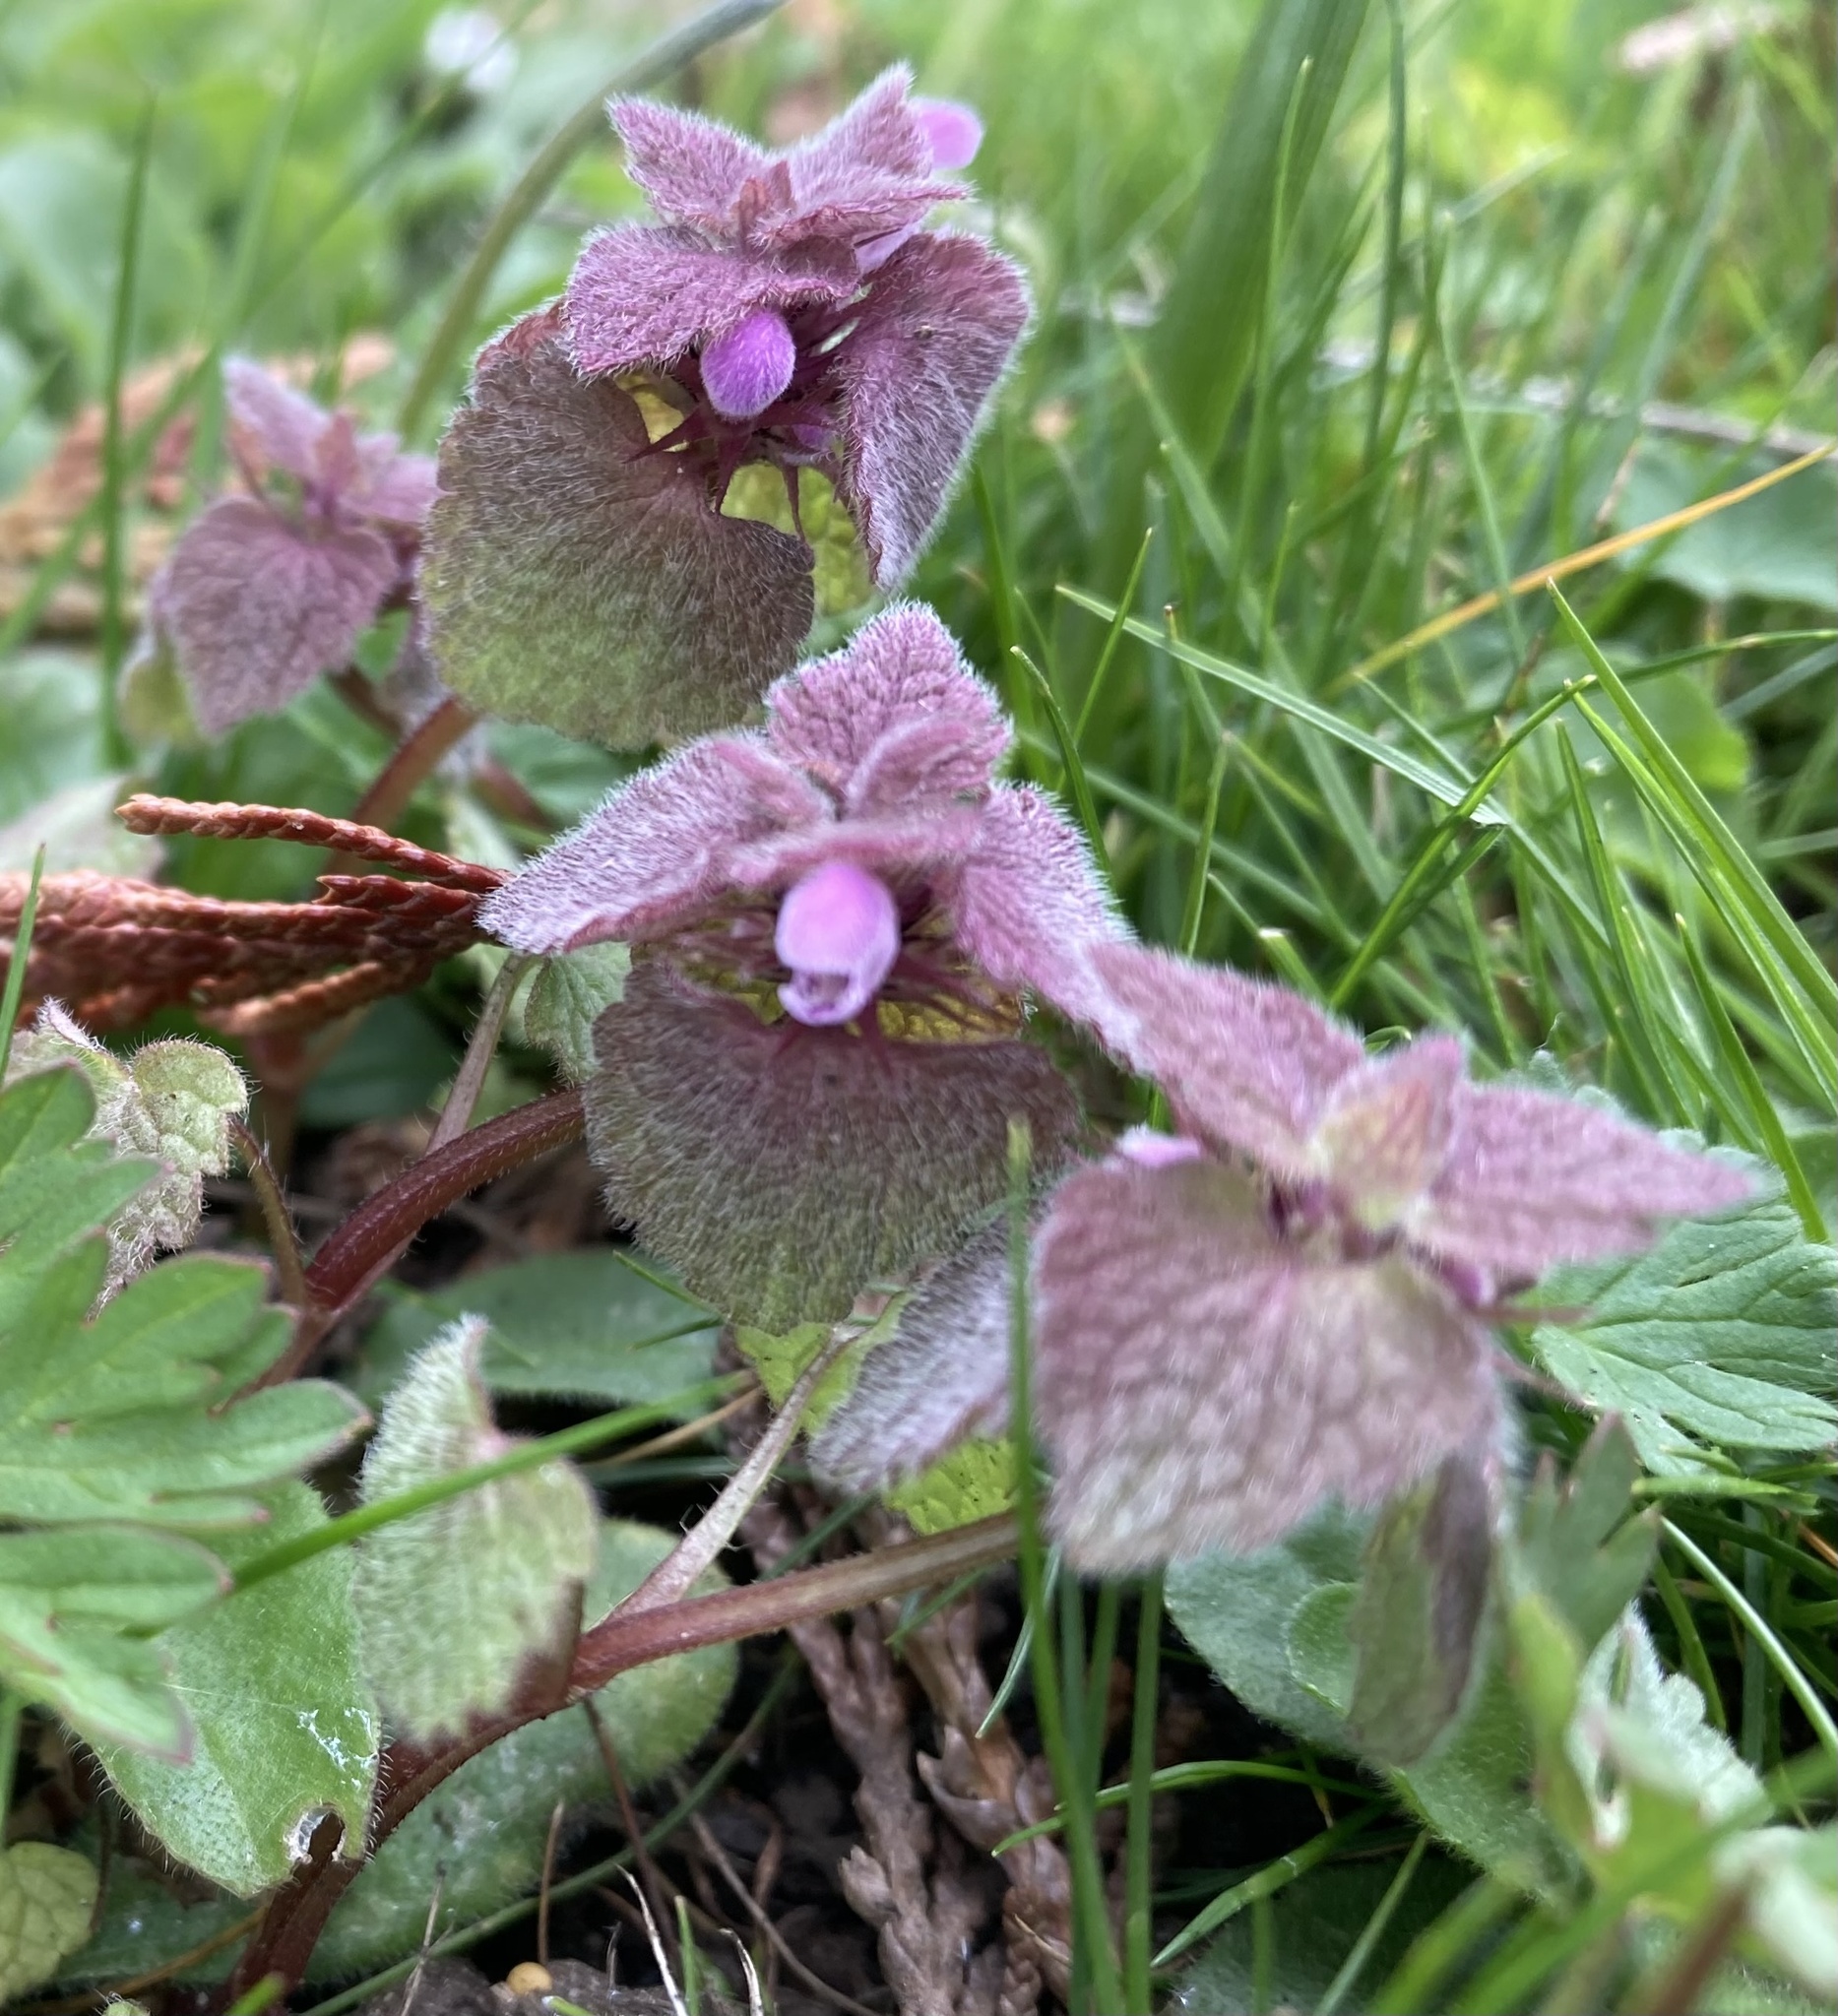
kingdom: Plantae
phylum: Tracheophyta
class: Magnoliopsida
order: Lamiales
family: Lamiaceae
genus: Lamium
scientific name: Lamium purpureum
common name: Red dead-nettle
